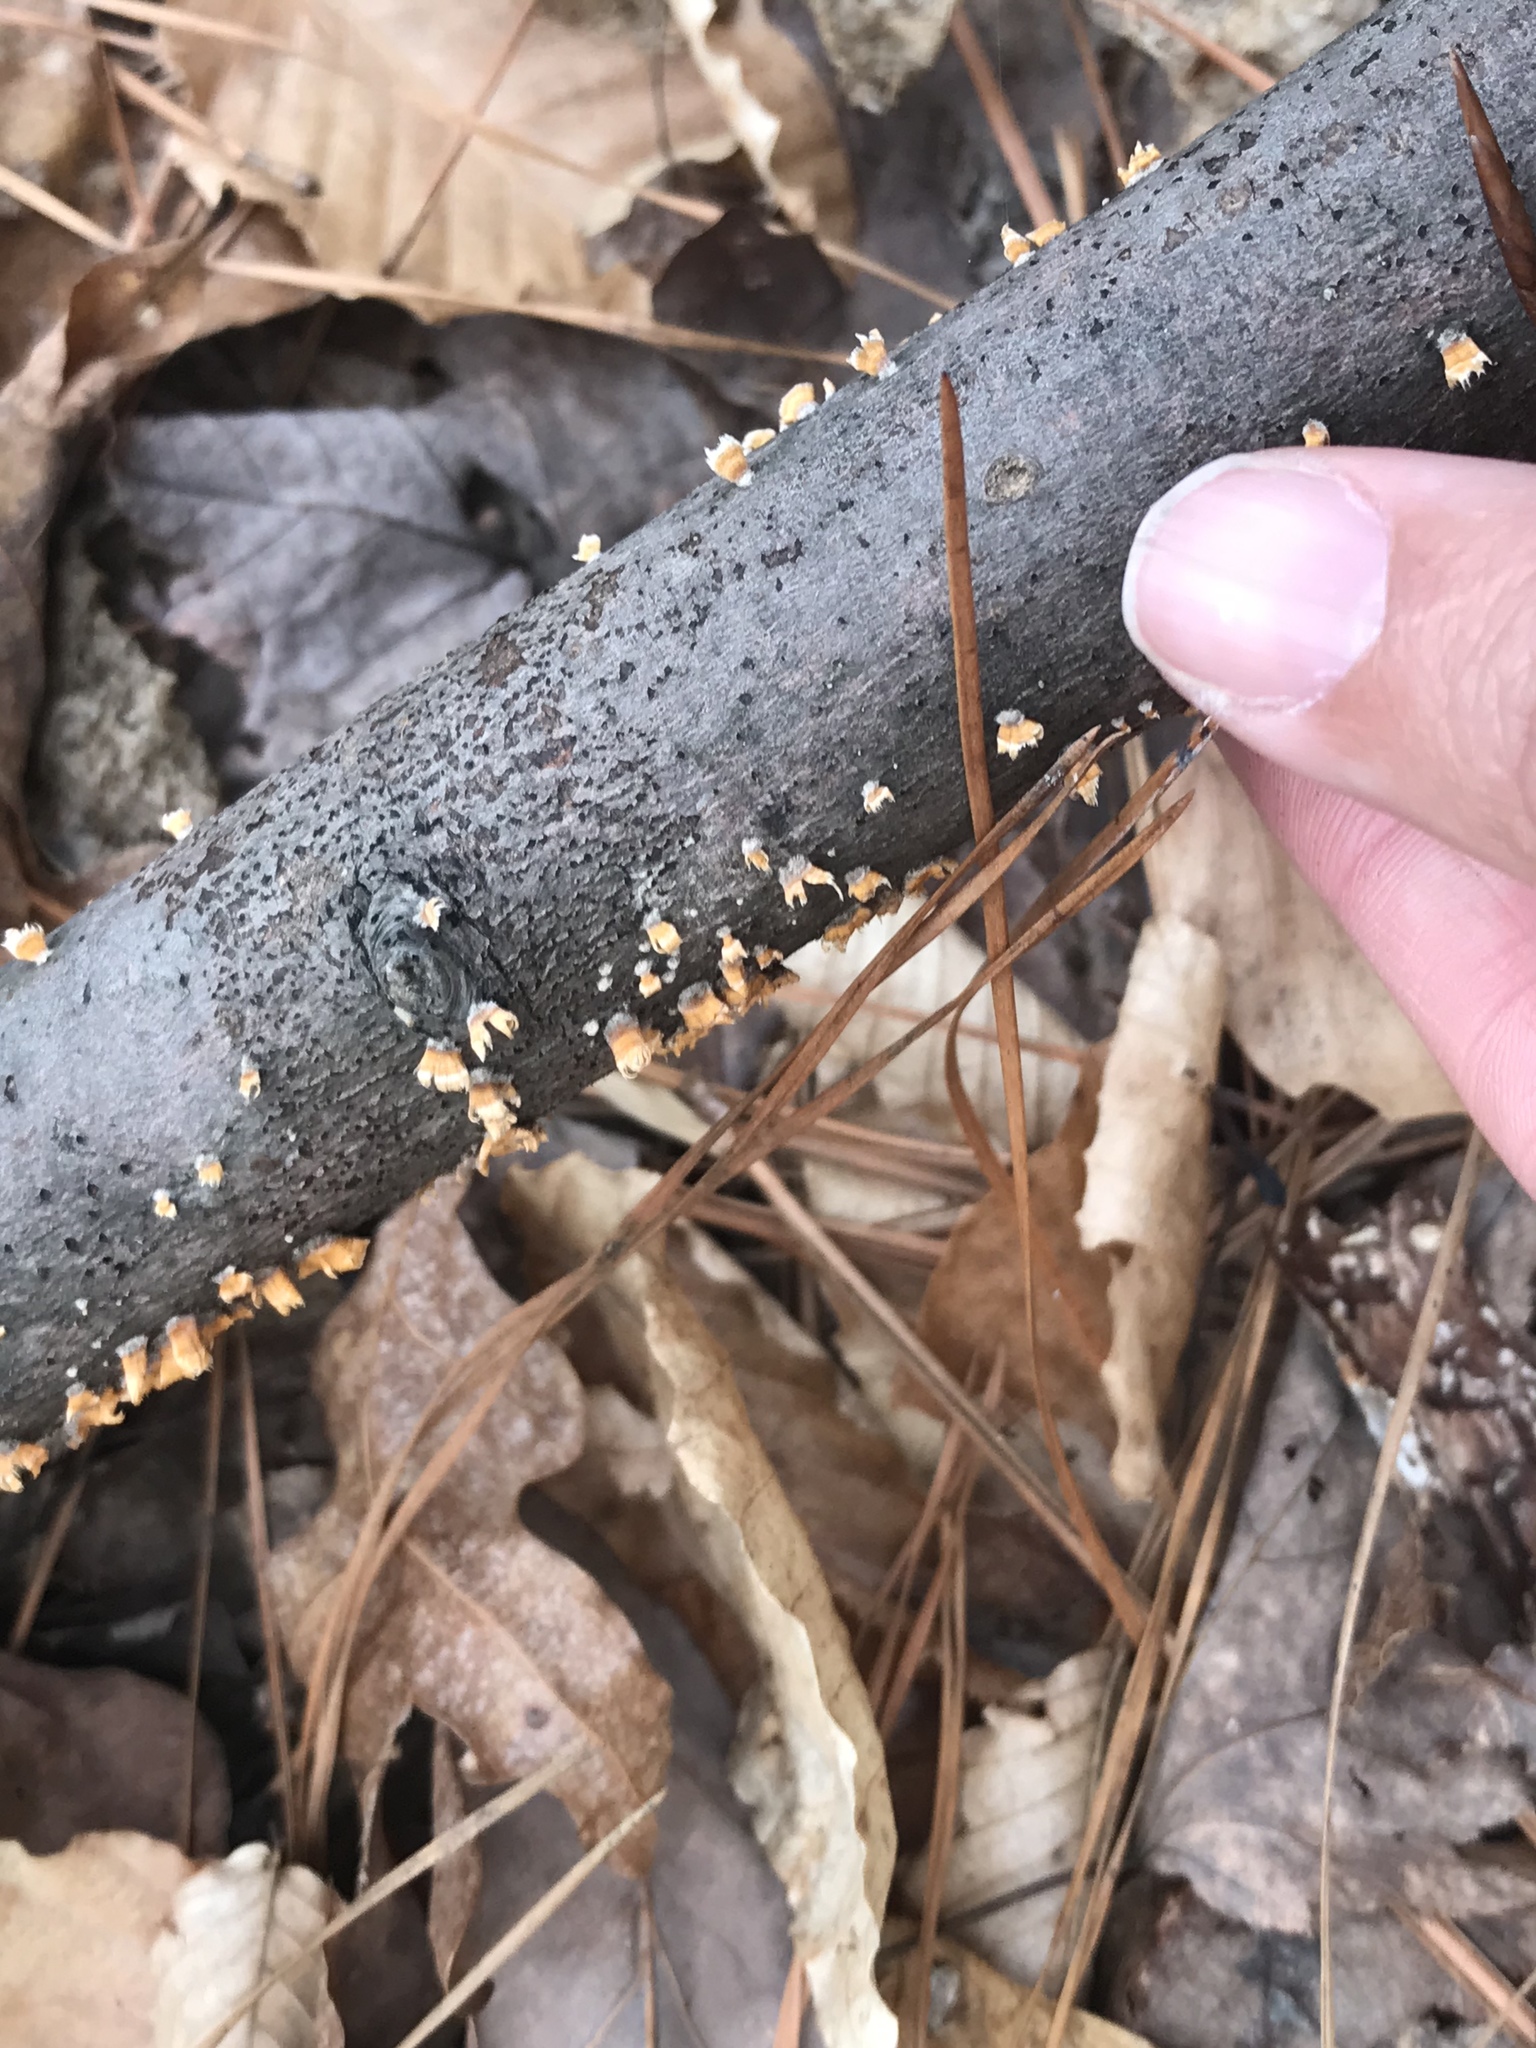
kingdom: Fungi
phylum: Basidiomycota
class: Agaricomycetes
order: Russulales
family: Stereaceae
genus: Stereum
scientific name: Stereum complicatum
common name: Crowded parchment
